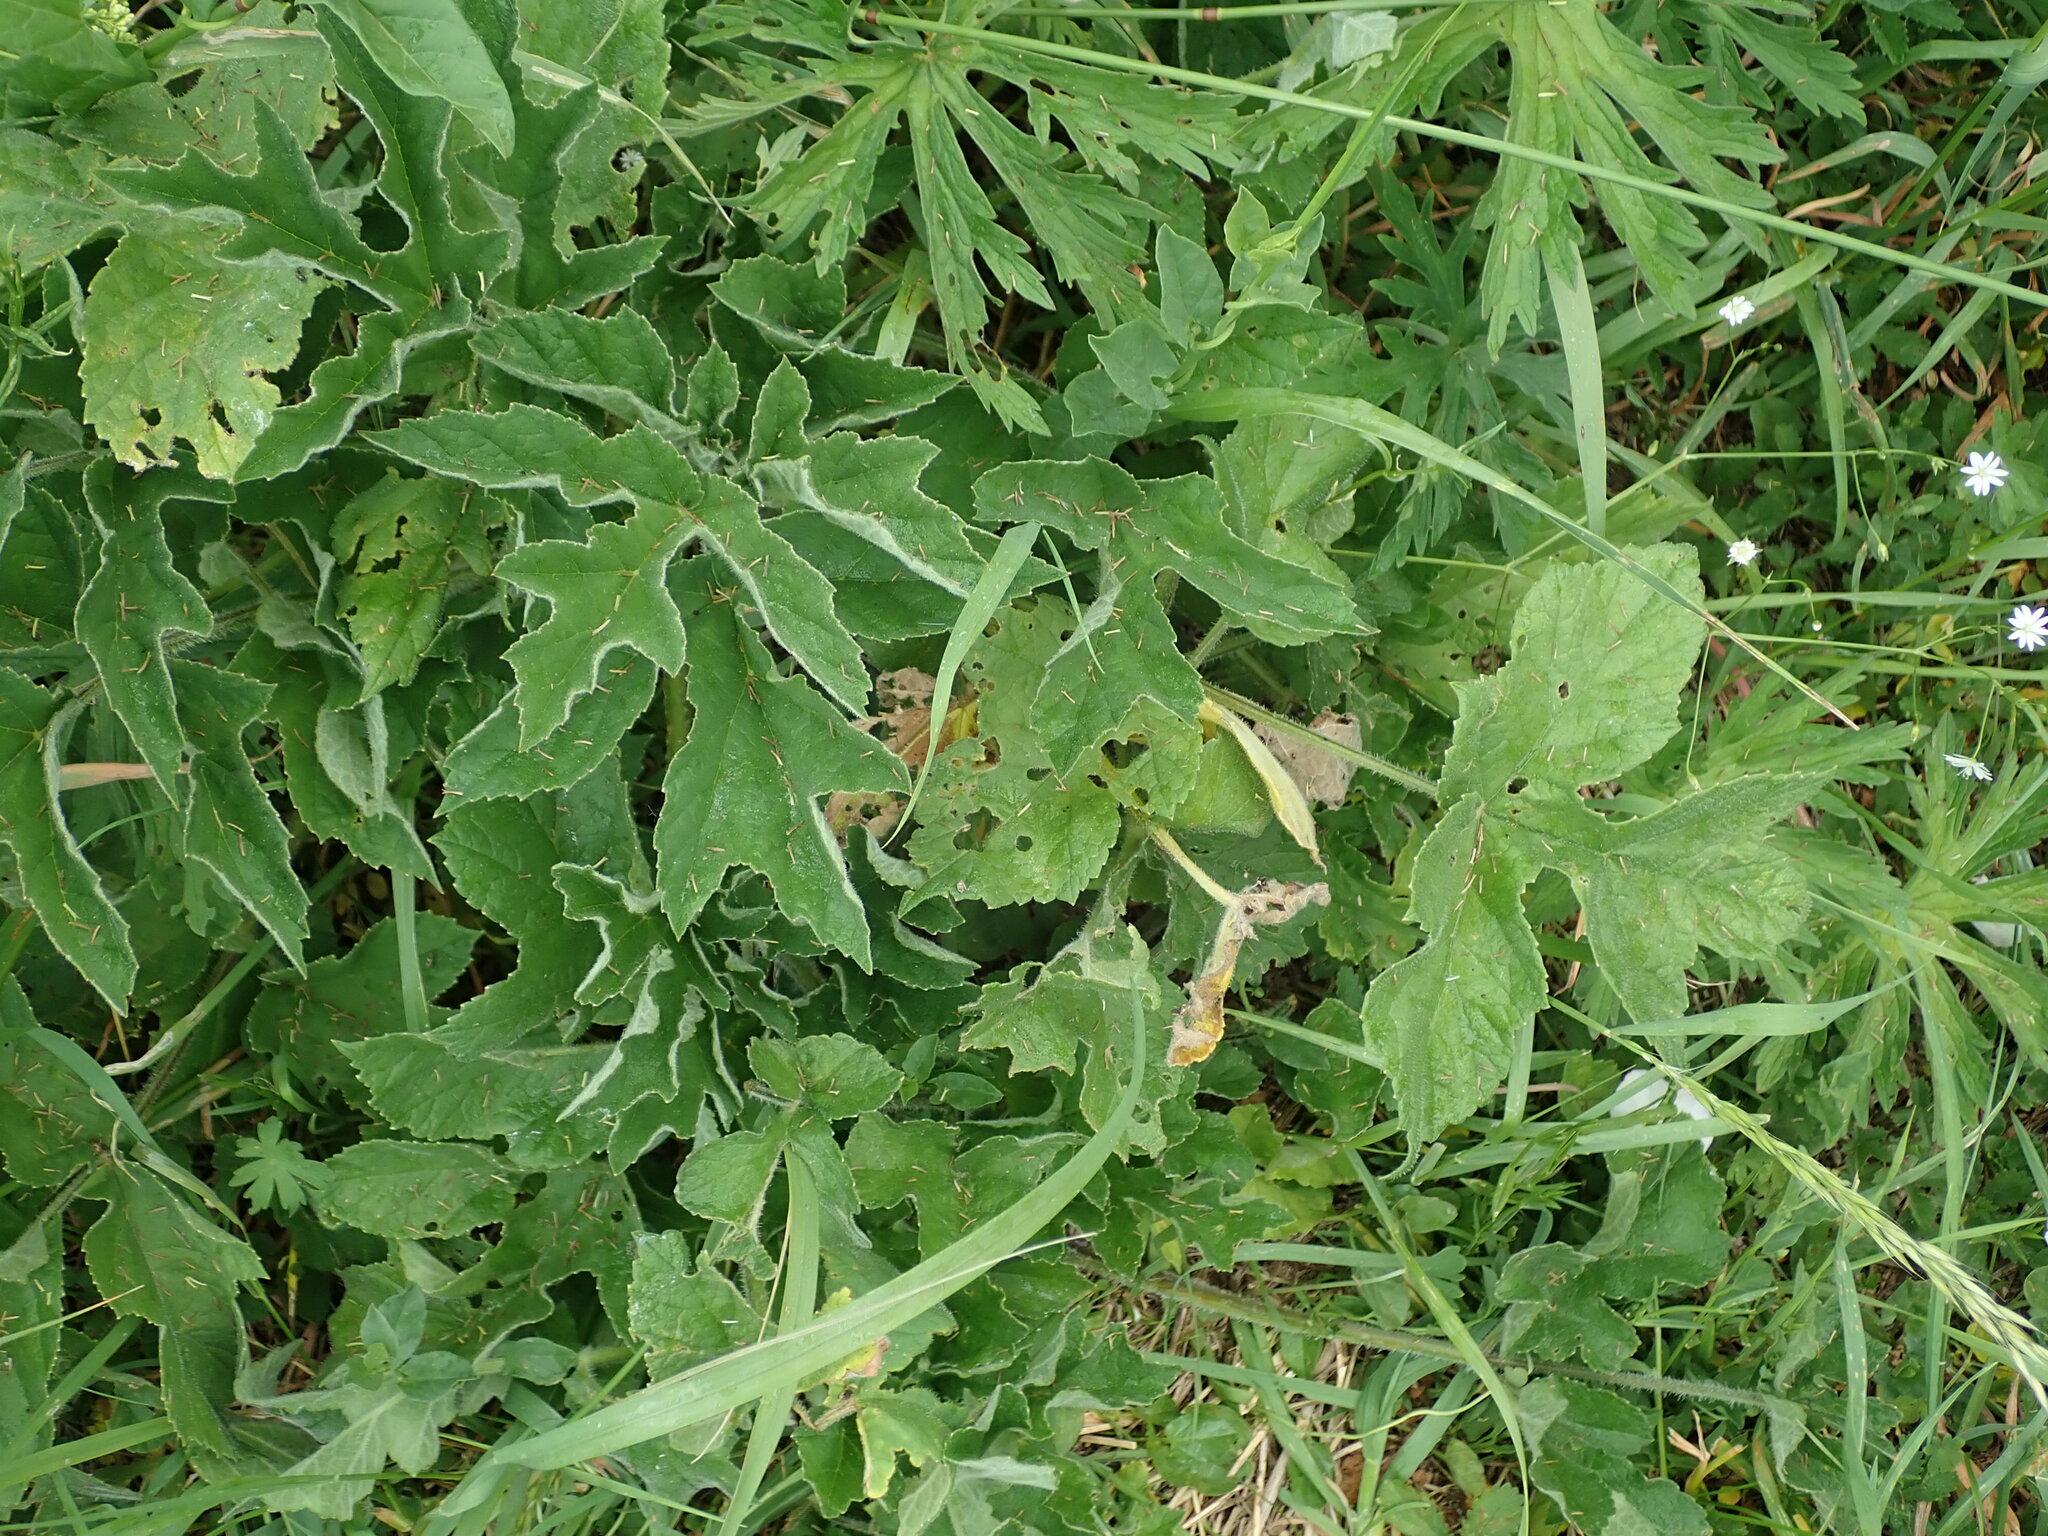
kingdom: Plantae
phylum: Tracheophyta
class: Magnoliopsida
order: Apiales
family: Apiaceae
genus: Heracleum
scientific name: Heracleum sphondylium
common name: Hogweed
